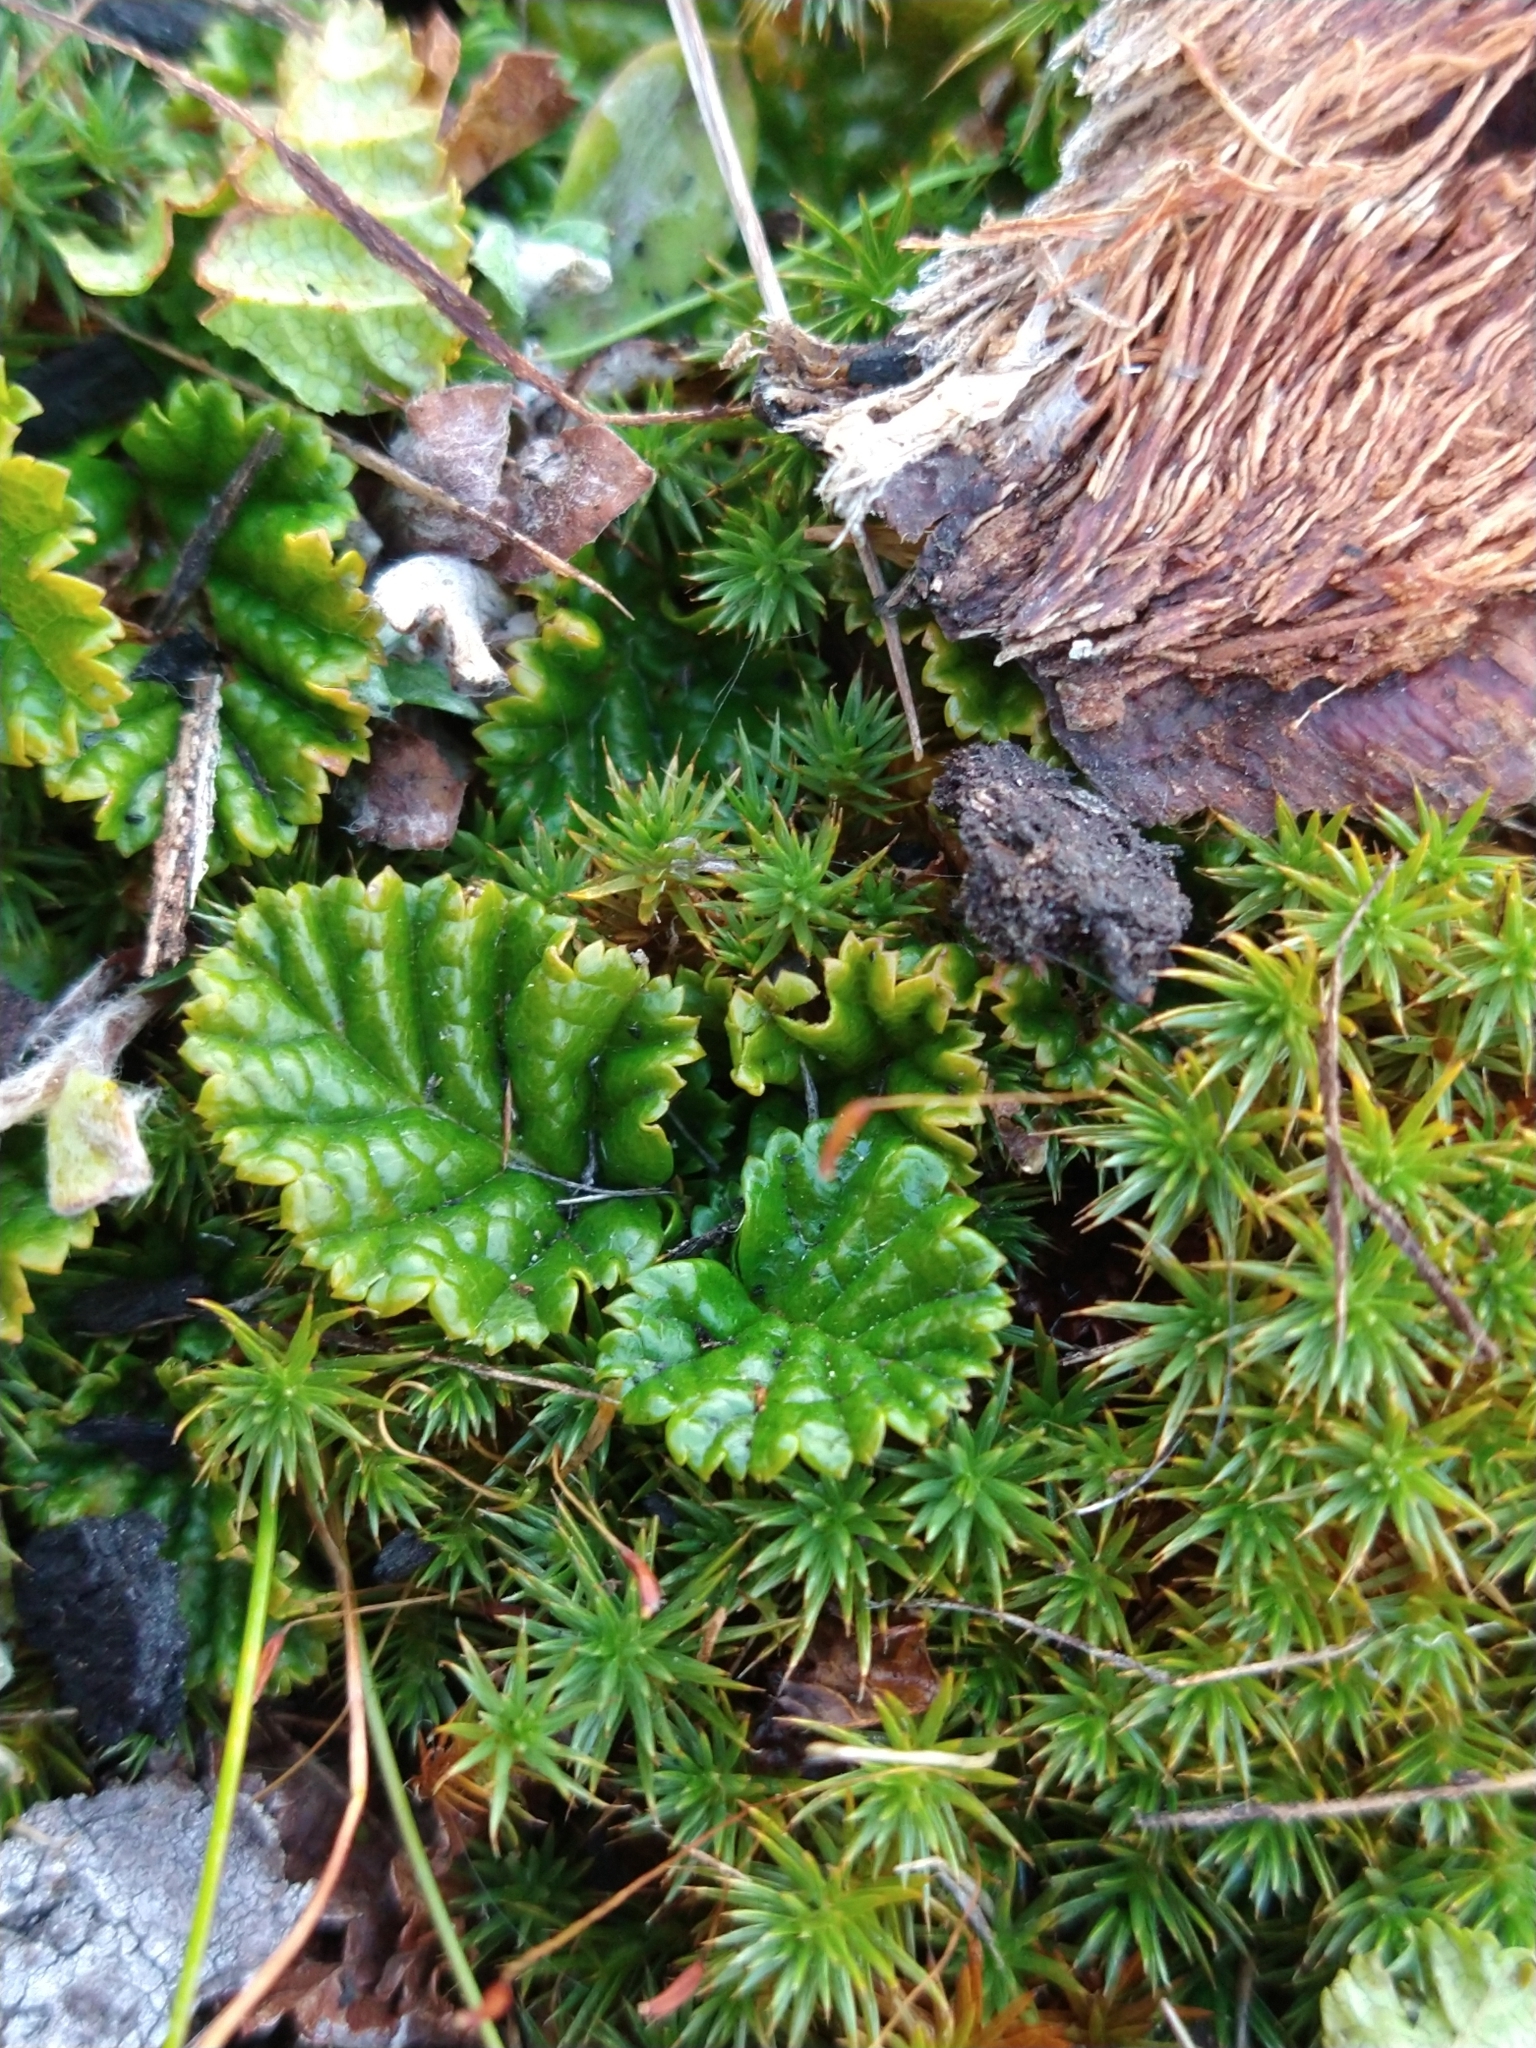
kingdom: Plantae
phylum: Tracheophyta
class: Magnoliopsida
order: Rosales
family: Rosaceae
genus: Rubus
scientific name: Rubus geoides
